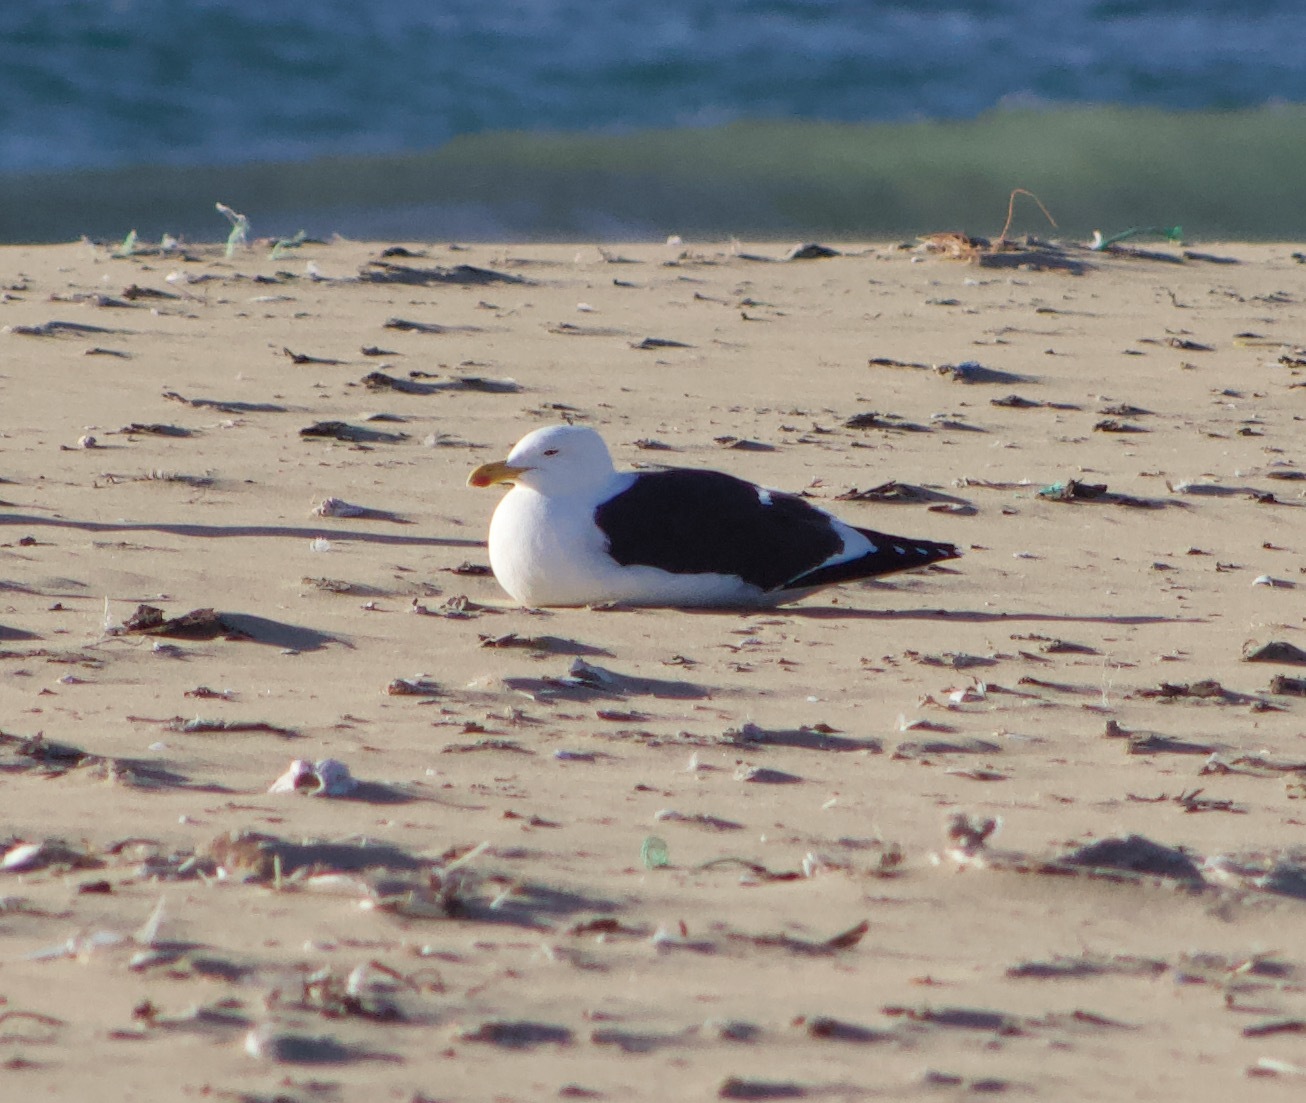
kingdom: Animalia
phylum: Chordata
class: Aves
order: Charadriiformes
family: Laridae
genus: Larus
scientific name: Larus dominicanus
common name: Kelp gull
